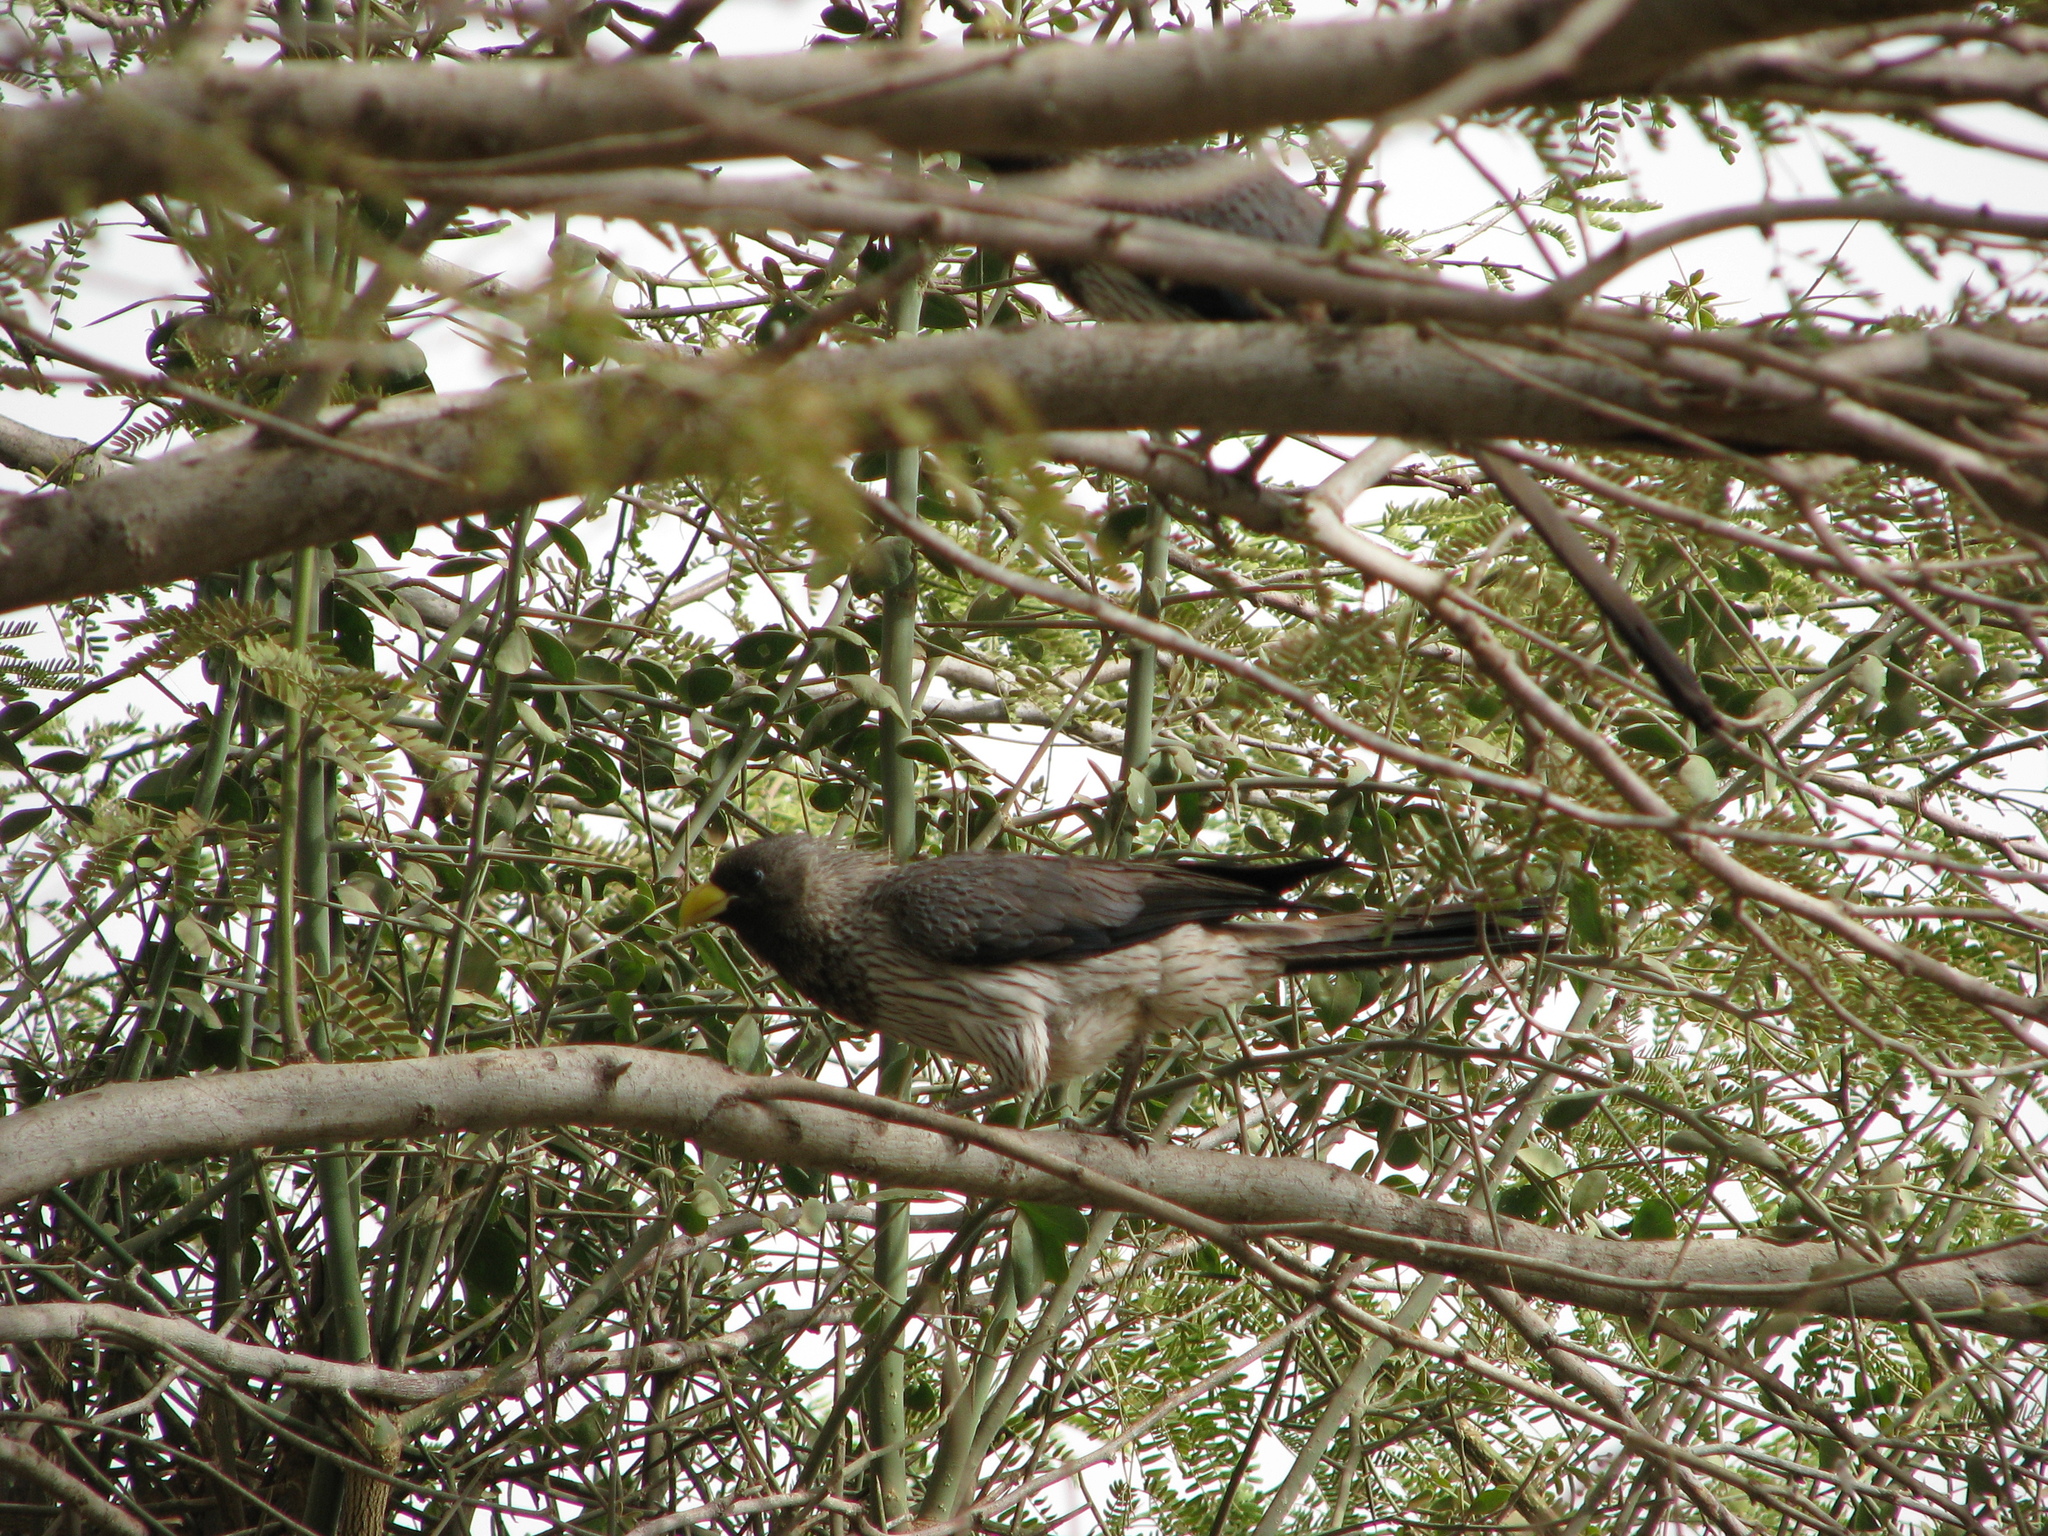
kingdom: Animalia
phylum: Chordata
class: Aves
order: Musophagiformes
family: Musophagidae
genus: Crinifer
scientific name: Crinifer piscator
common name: Western plantain-eater
